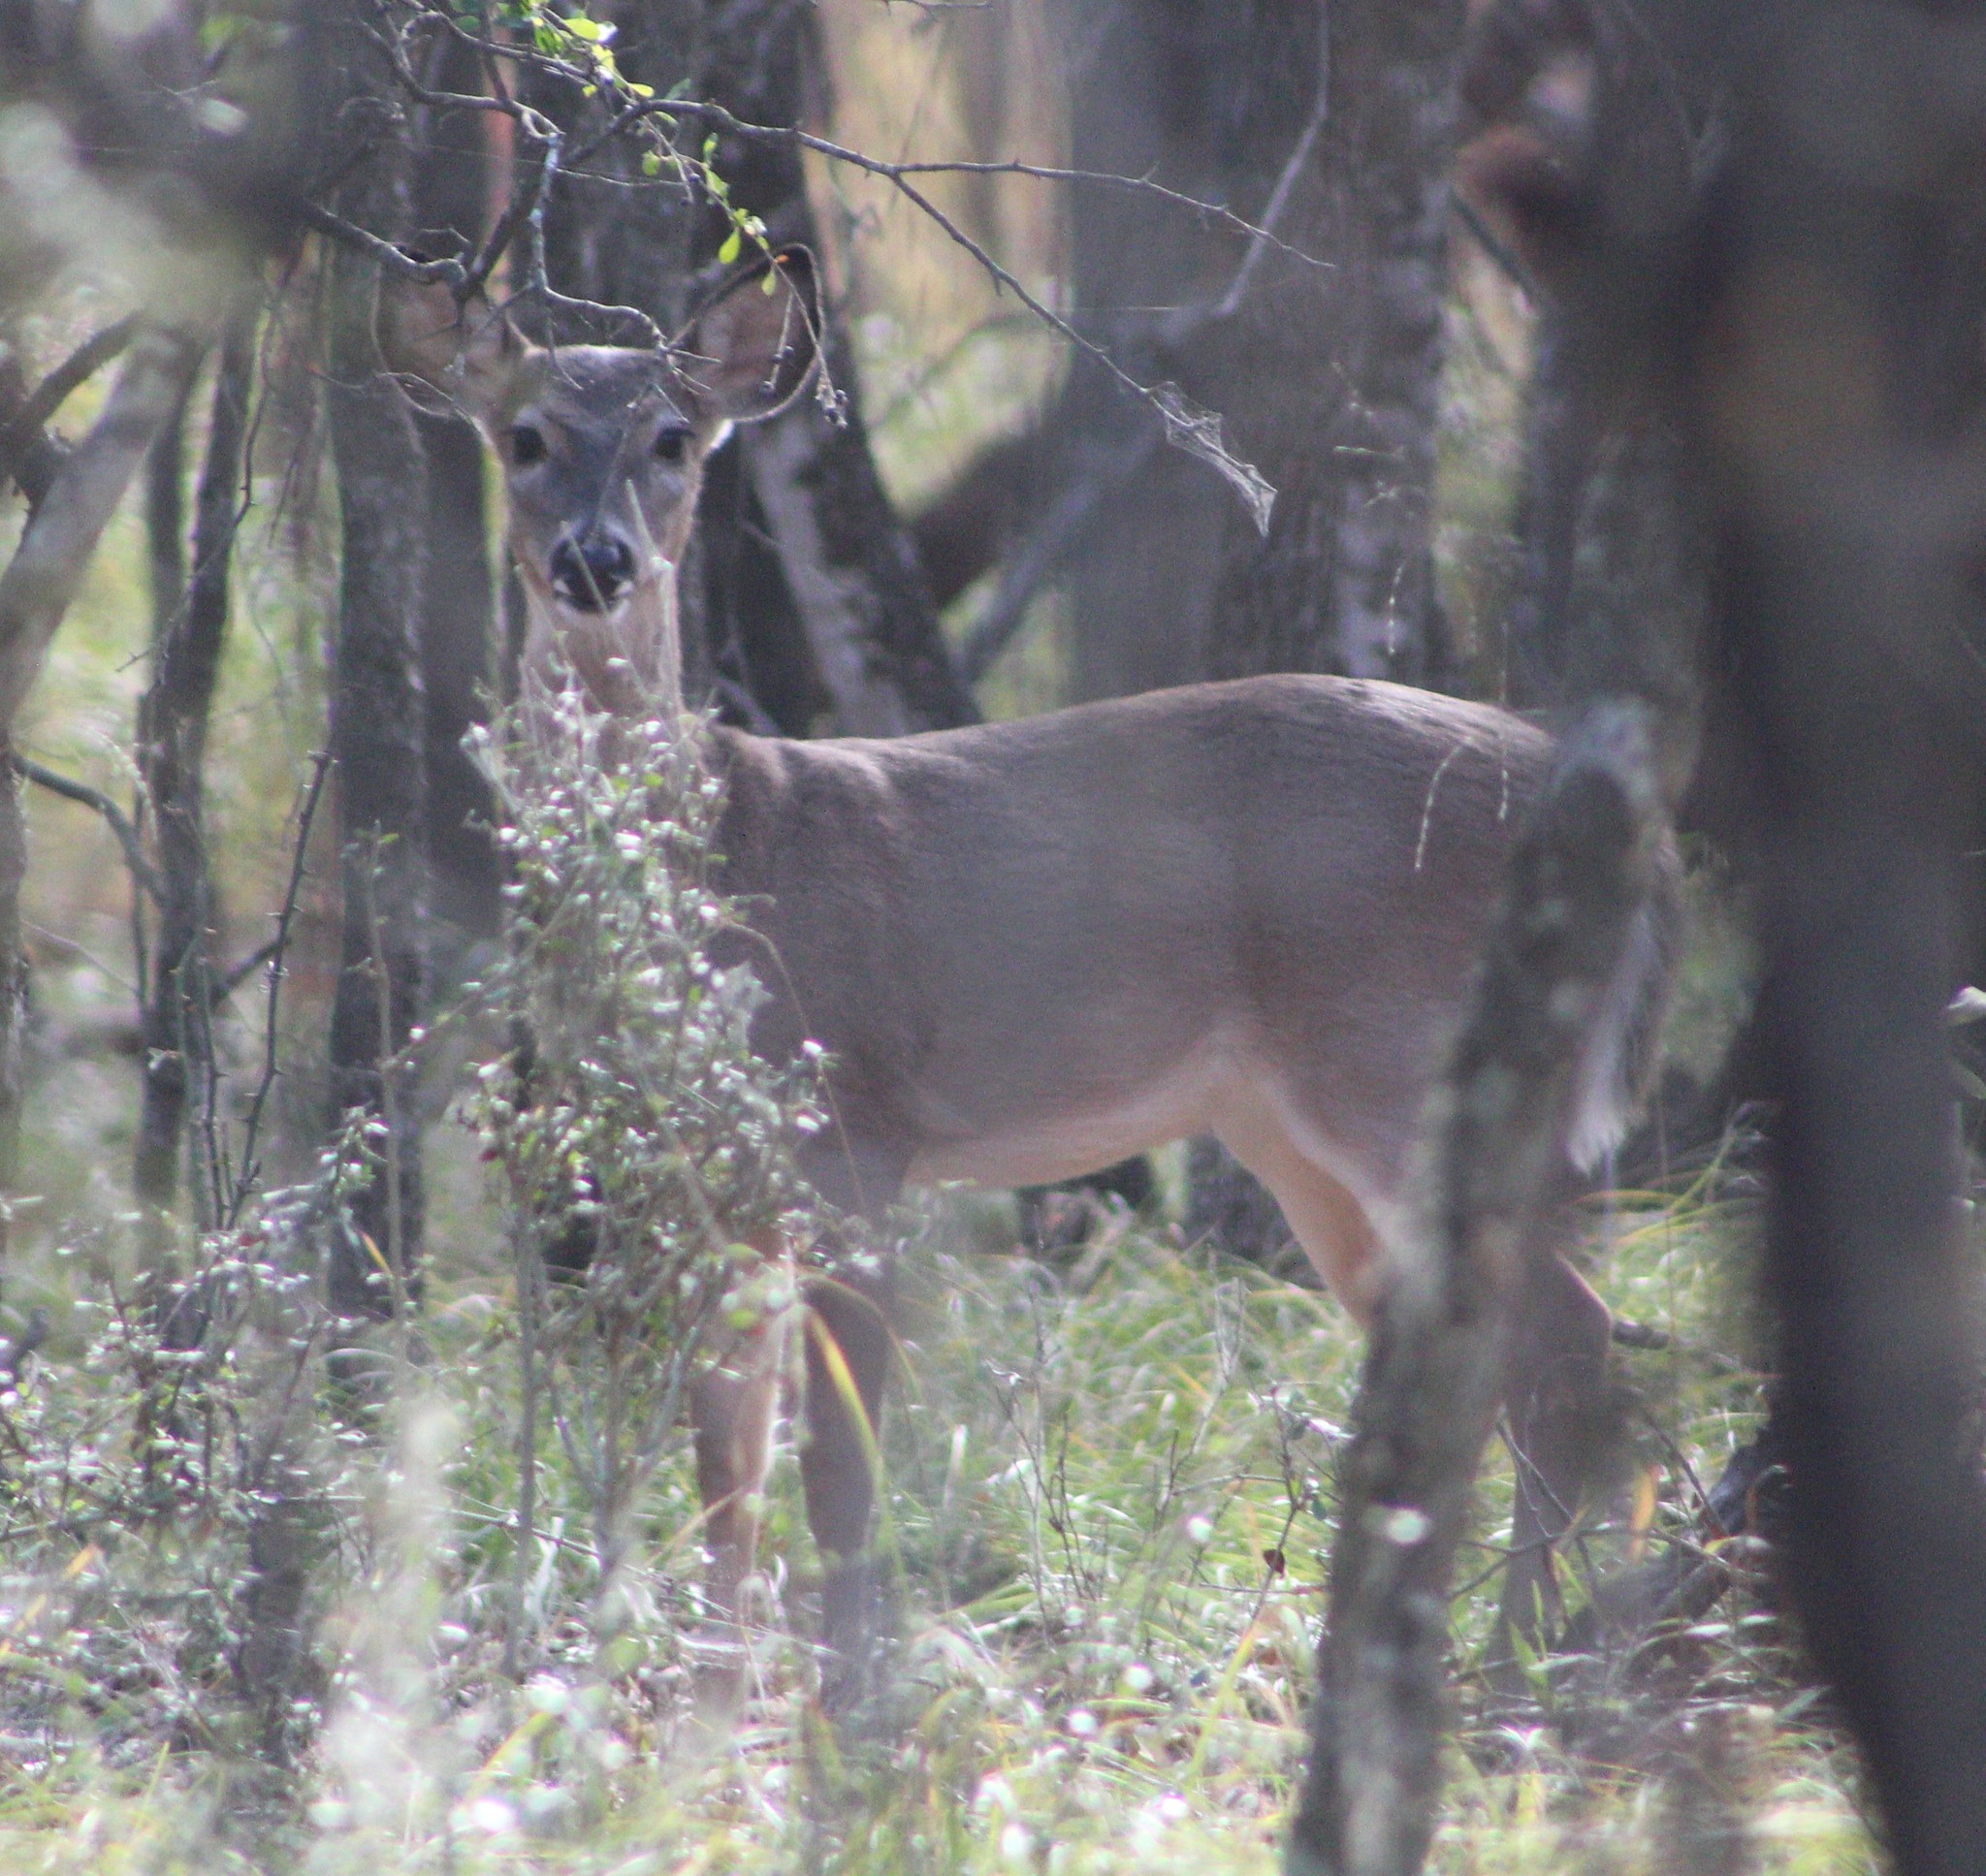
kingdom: Animalia
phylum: Chordata
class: Mammalia
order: Artiodactyla
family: Cervidae
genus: Odocoileus
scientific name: Odocoileus virginianus
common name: White-tailed deer
